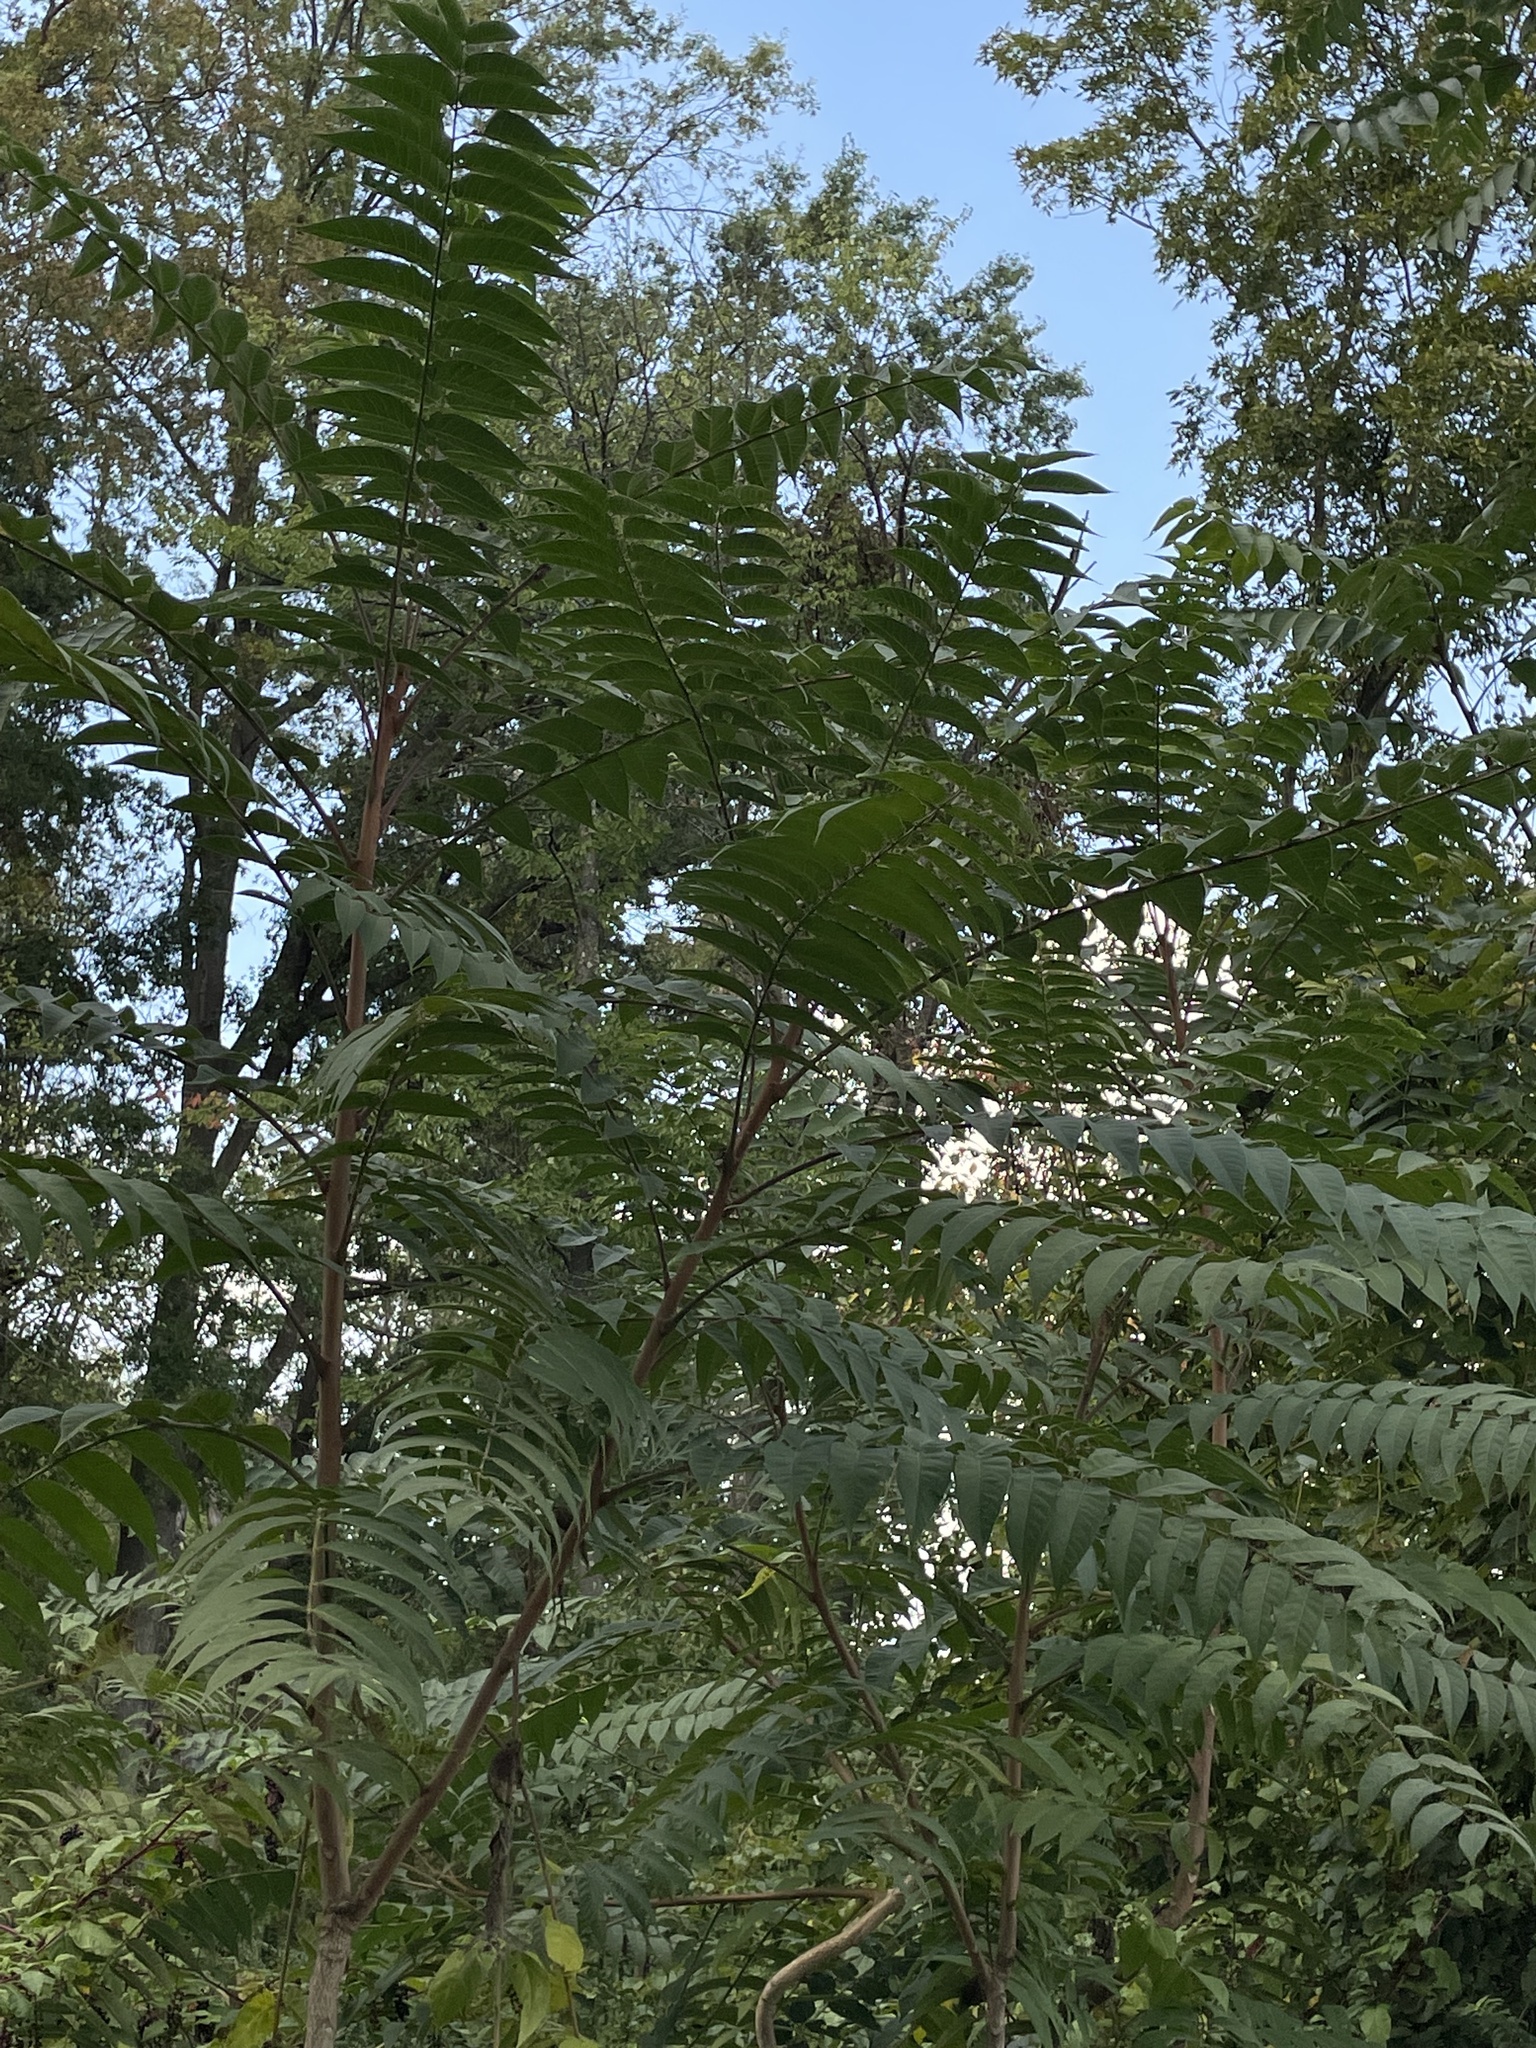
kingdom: Plantae
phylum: Tracheophyta
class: Magnoliopsida
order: Sapindales
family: Simaroubaceae
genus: Ailanthus
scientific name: Ailanthus altissima
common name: Tree-of-heaven
